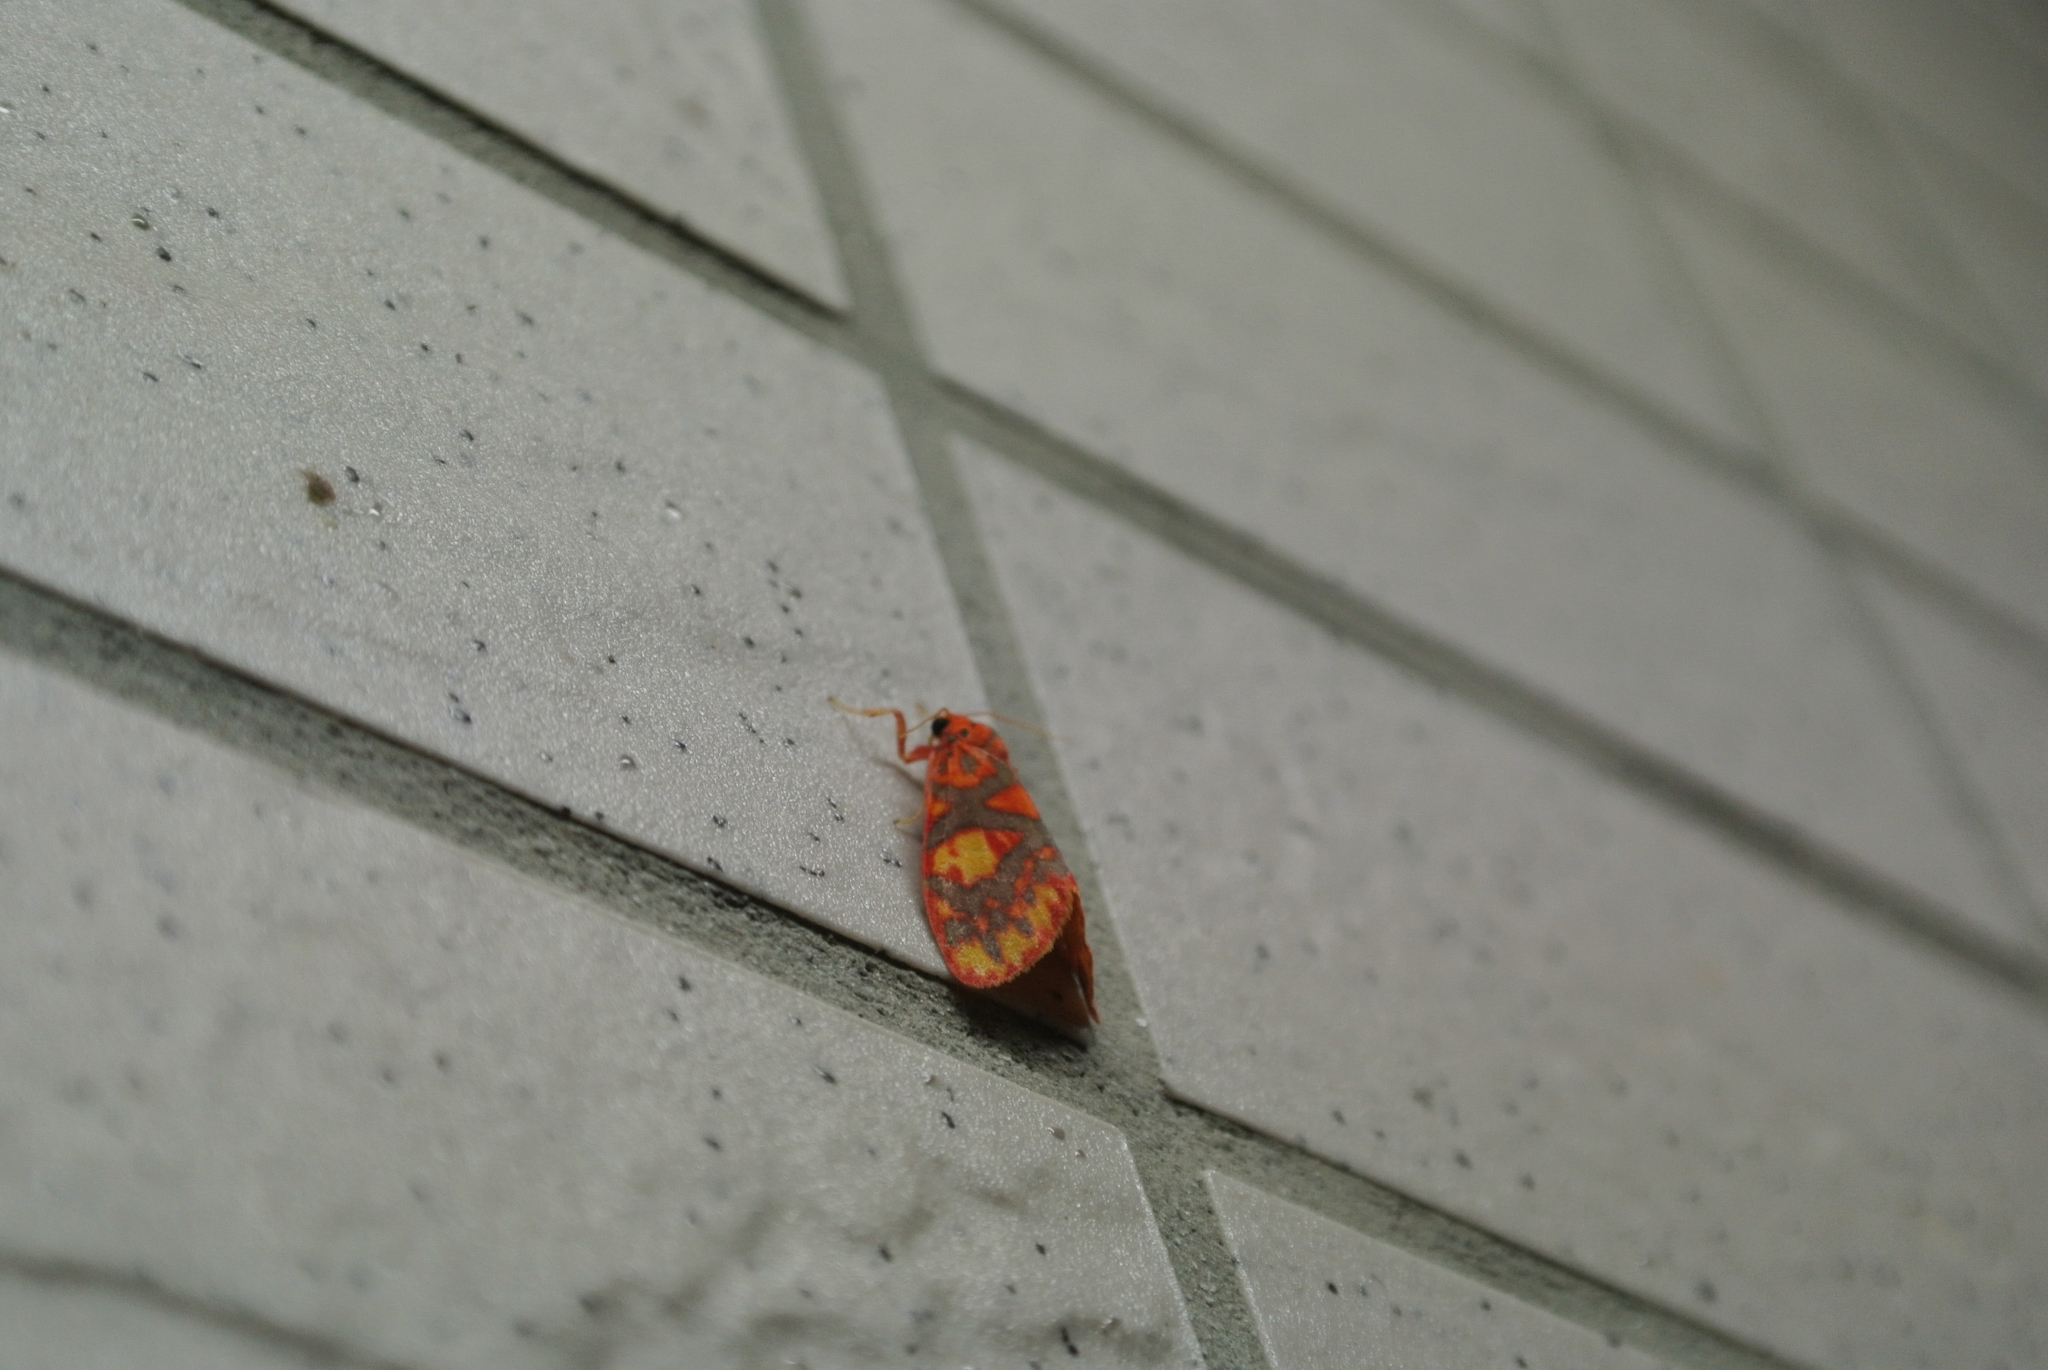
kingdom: Animalia
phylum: Arthropoda
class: Insecta
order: Lepidoptera
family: Erebidae
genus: Floridasura
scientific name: Floridasura tricolor
